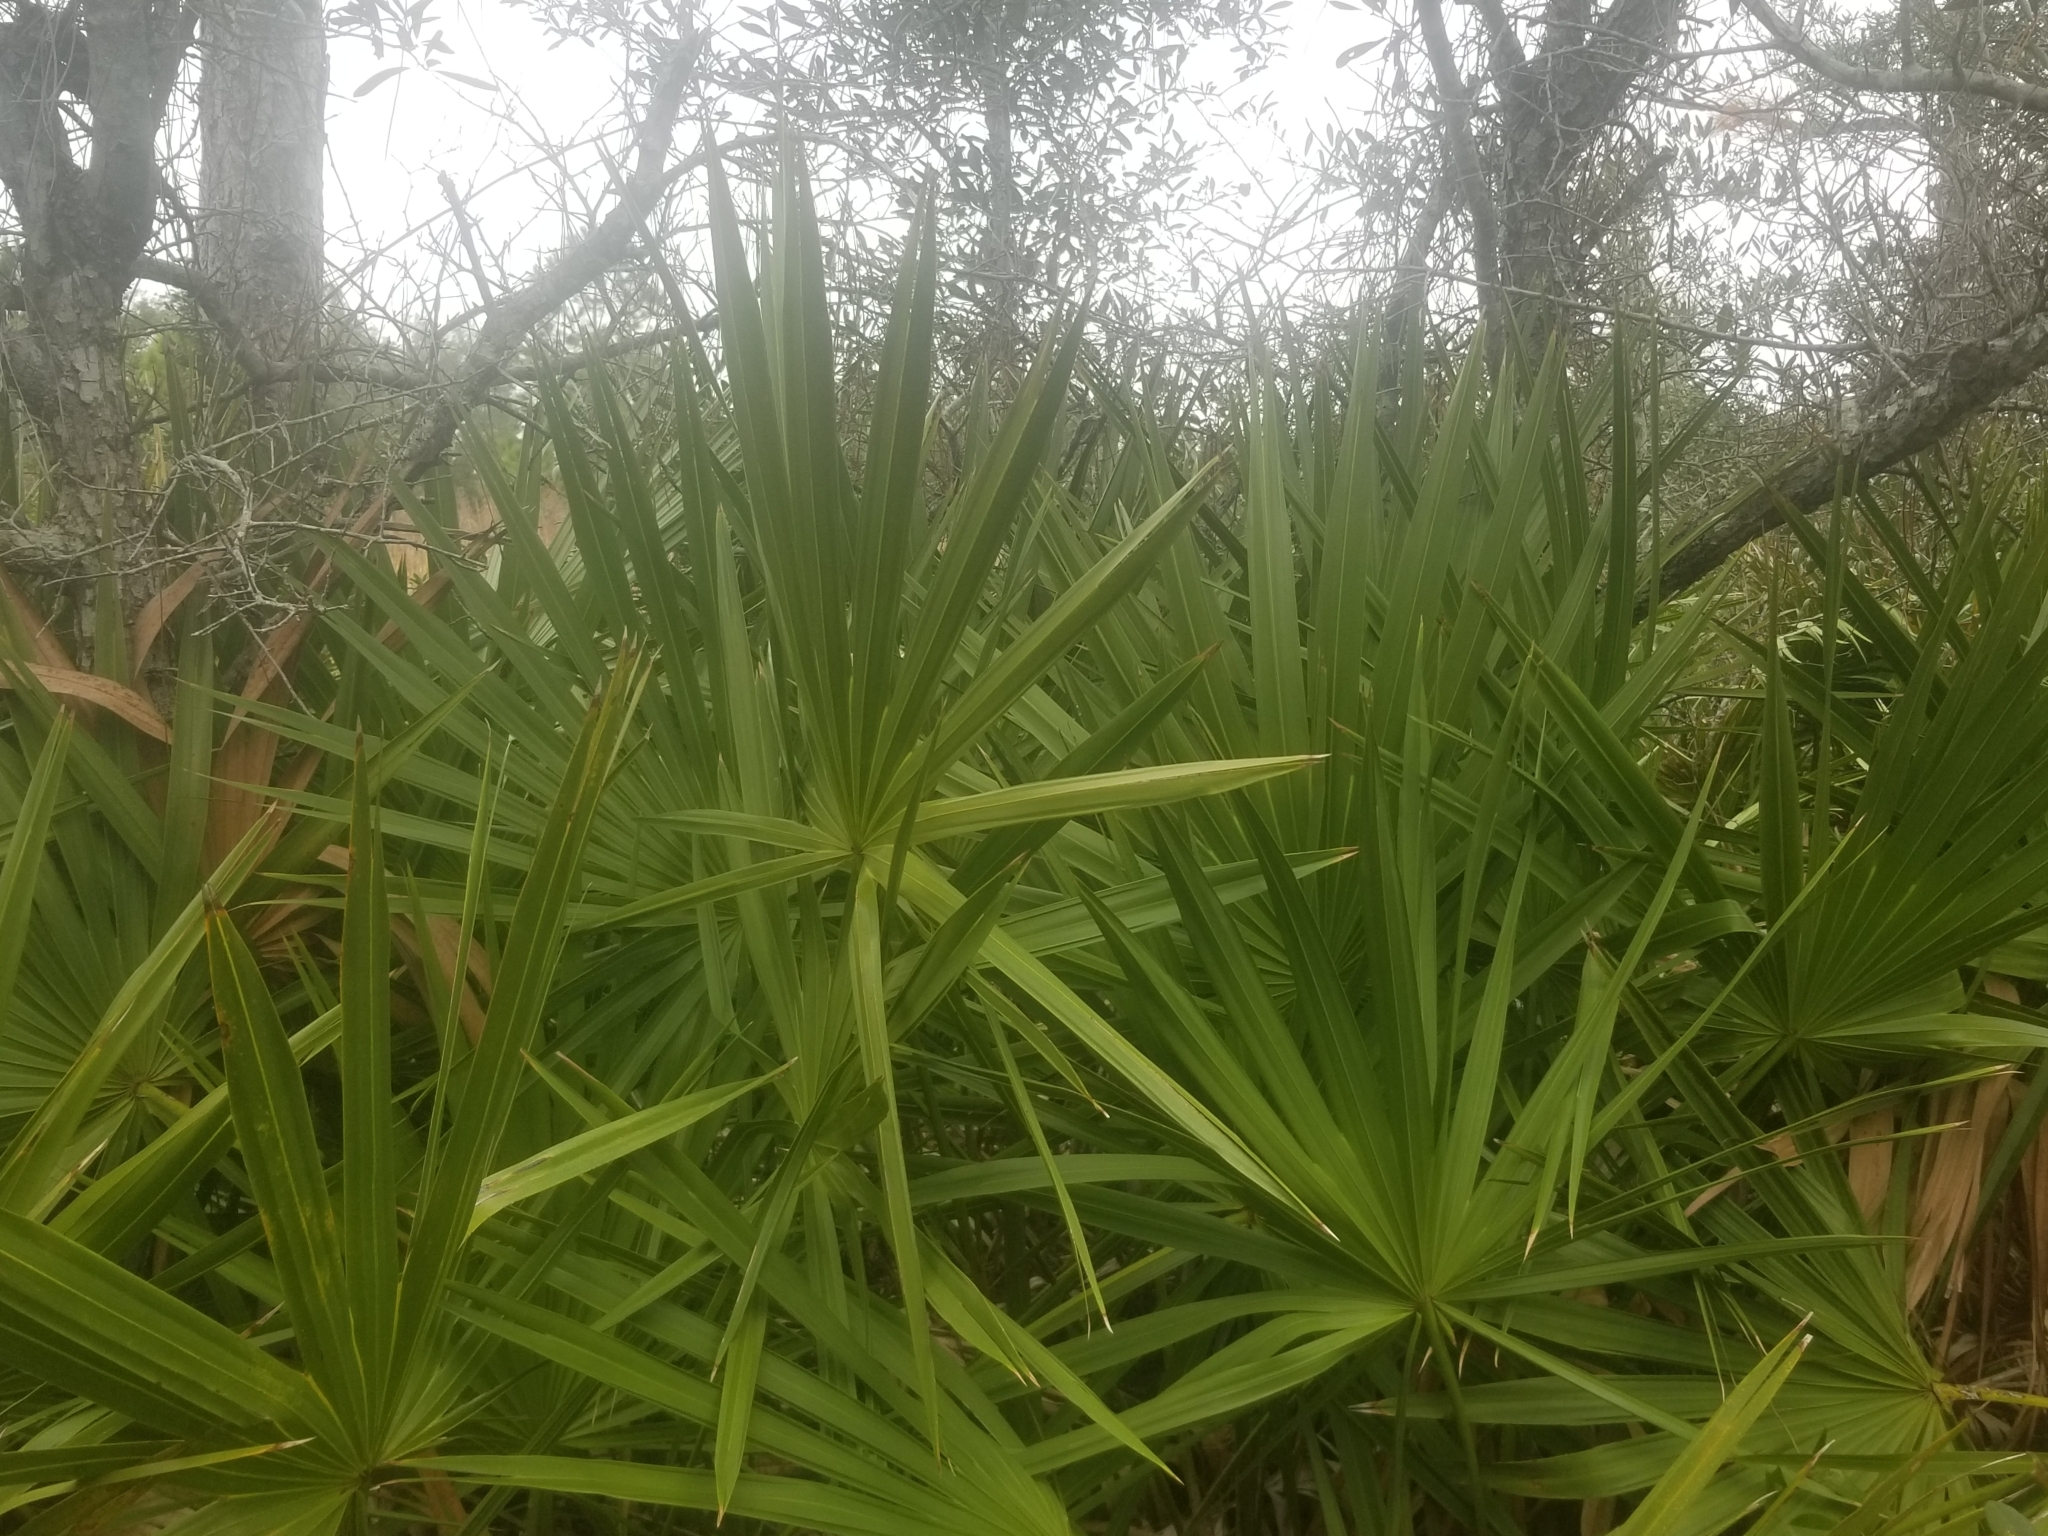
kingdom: Plantae
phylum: Tracheophyta
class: Liliopsida
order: Arecales
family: Arecaceae
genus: Serenoa
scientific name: Serenoa repens
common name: Saw-palmetto
